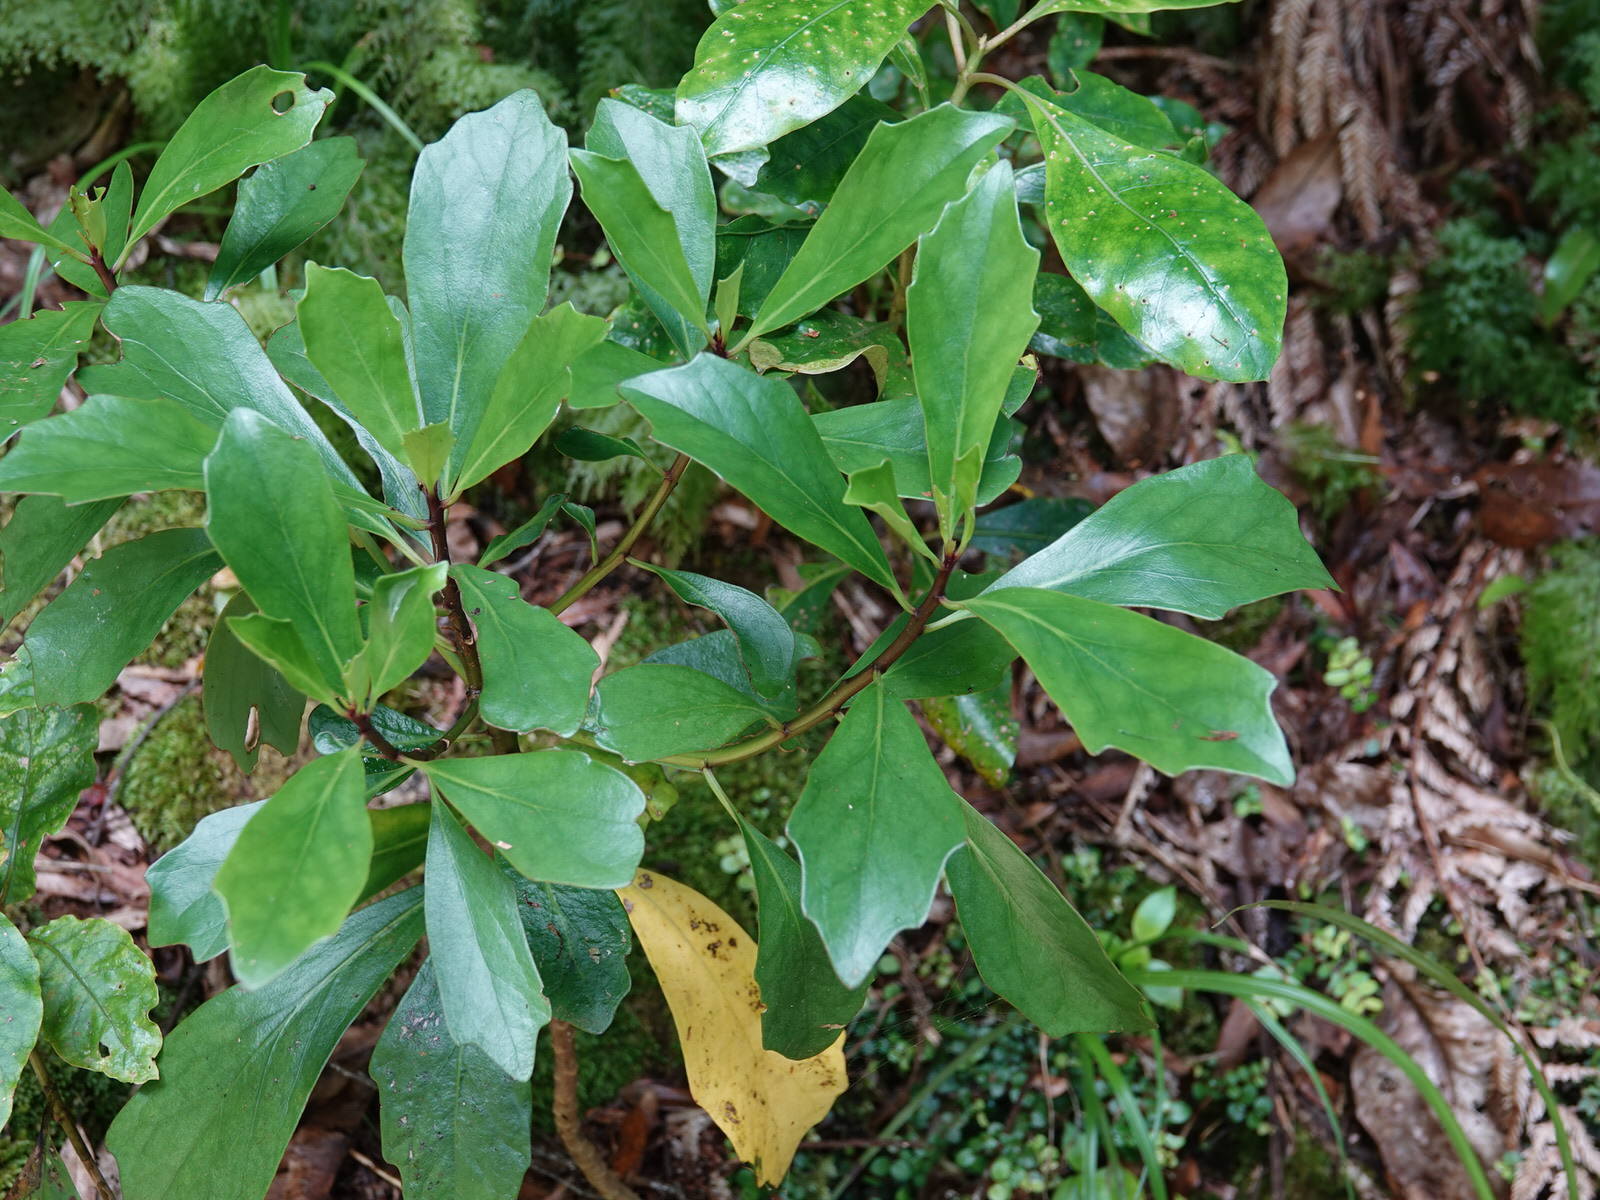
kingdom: Plantae
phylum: Tracheophyta
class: Magnoliopsida
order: Asterales
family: Asteraceae
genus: Brachyglottis
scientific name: Brachyglottis kirkii
